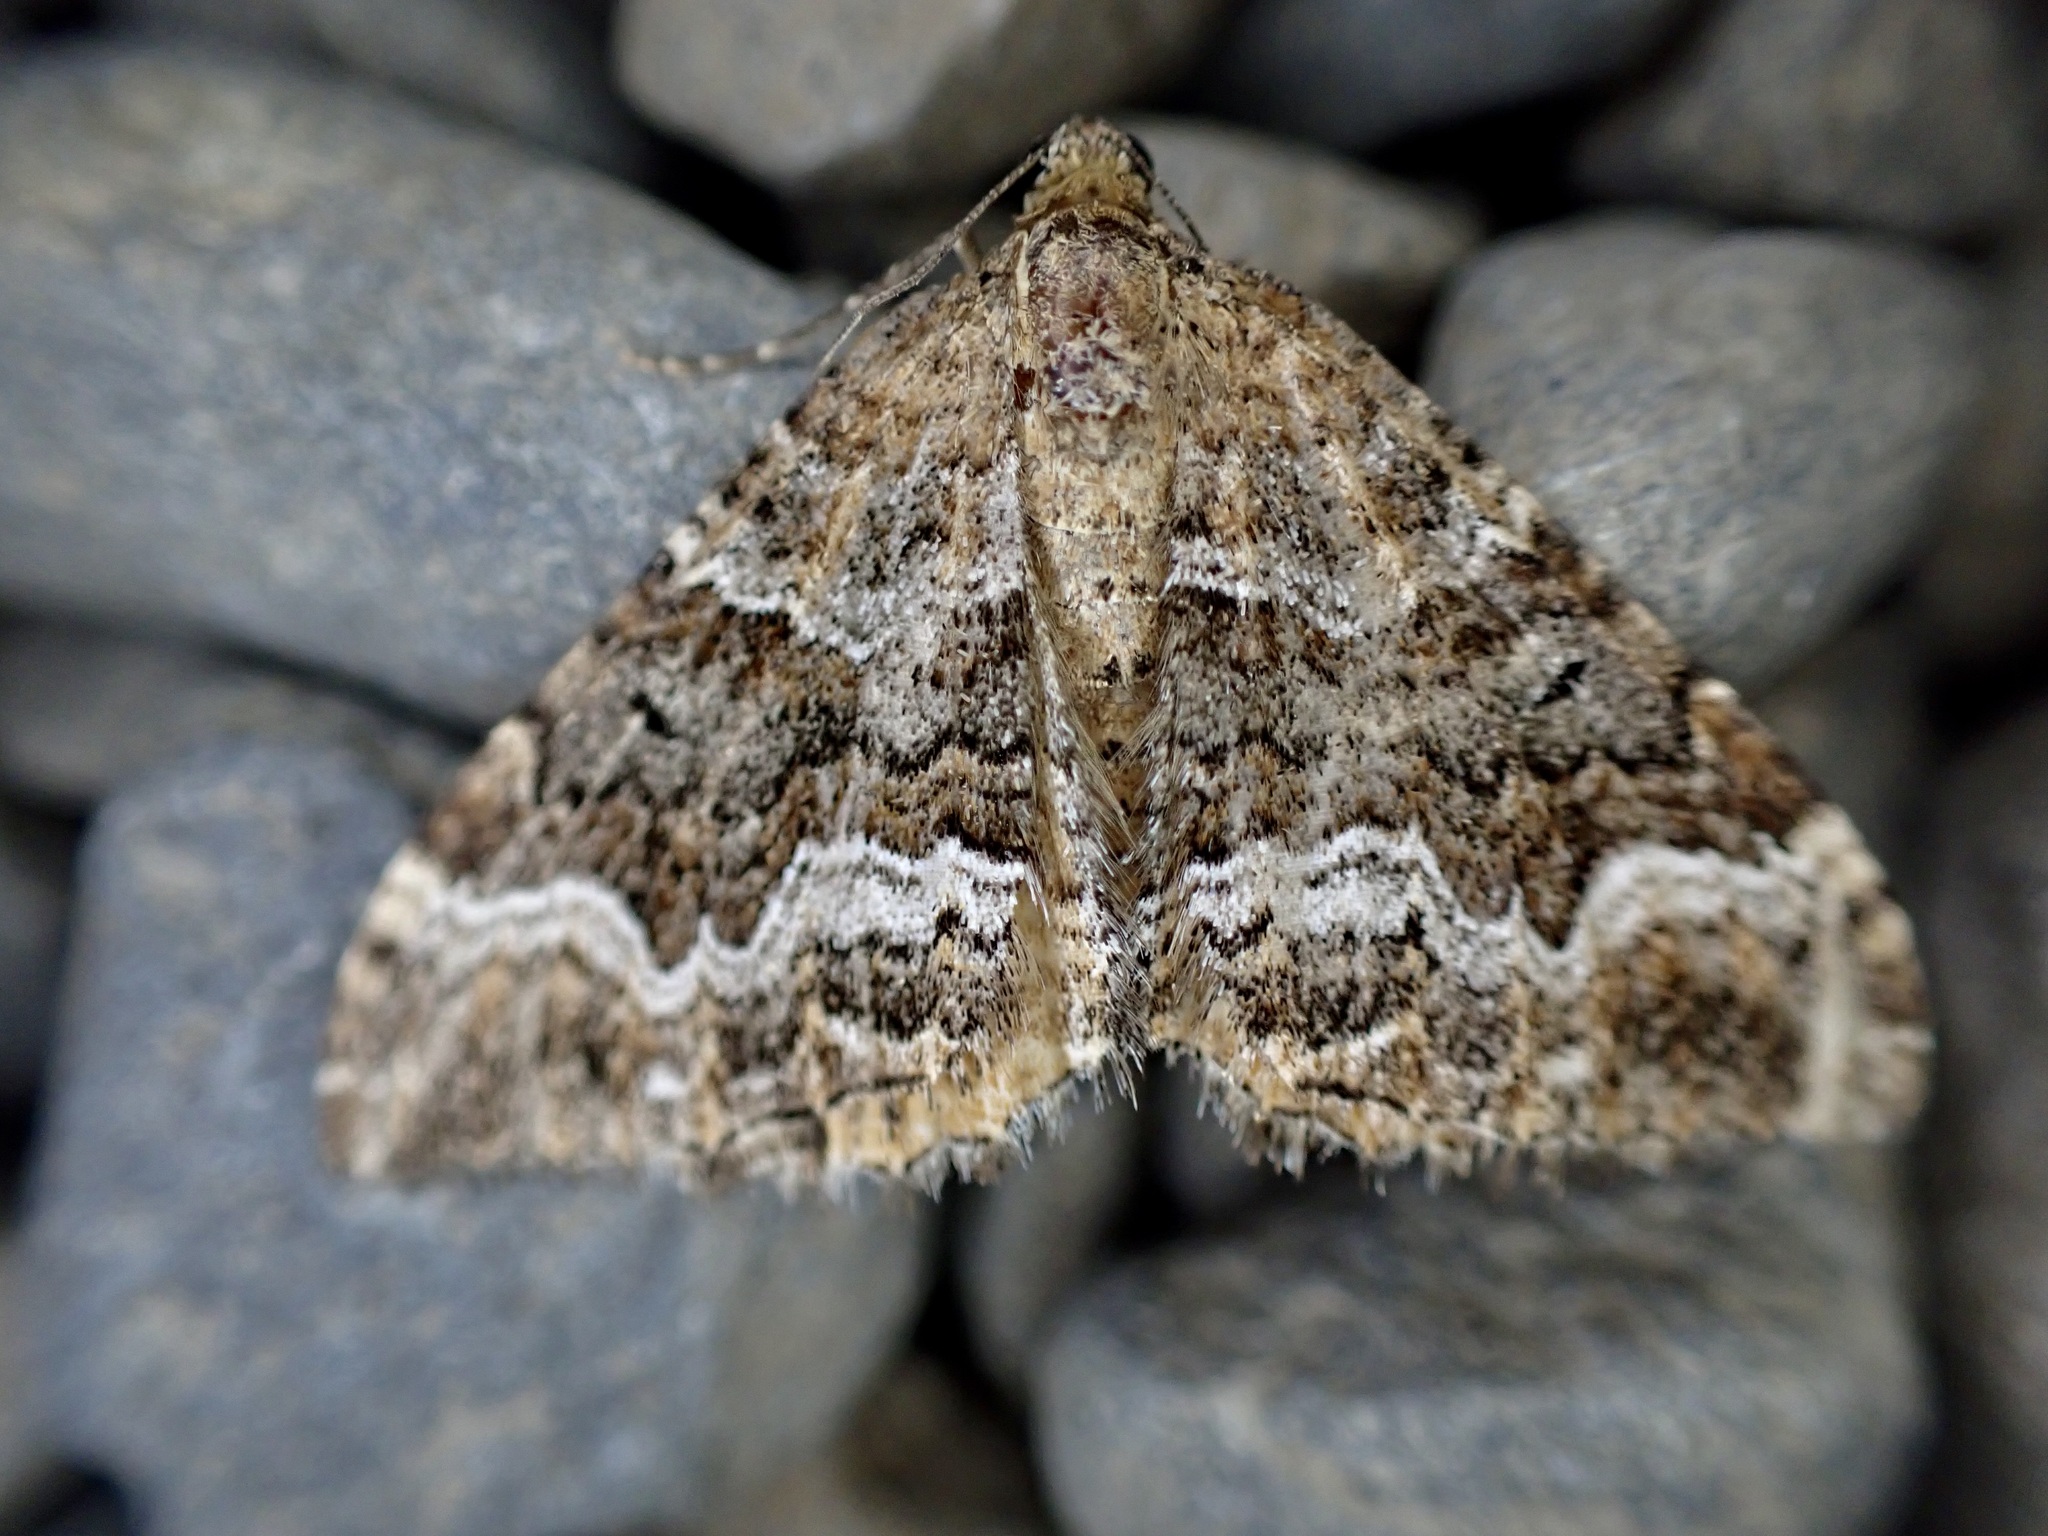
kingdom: Animalia
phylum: Arthropoda
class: Insecta
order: Lepidoptera
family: Geometridae
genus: Hydriomena
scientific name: Hydriomena deltoidata
